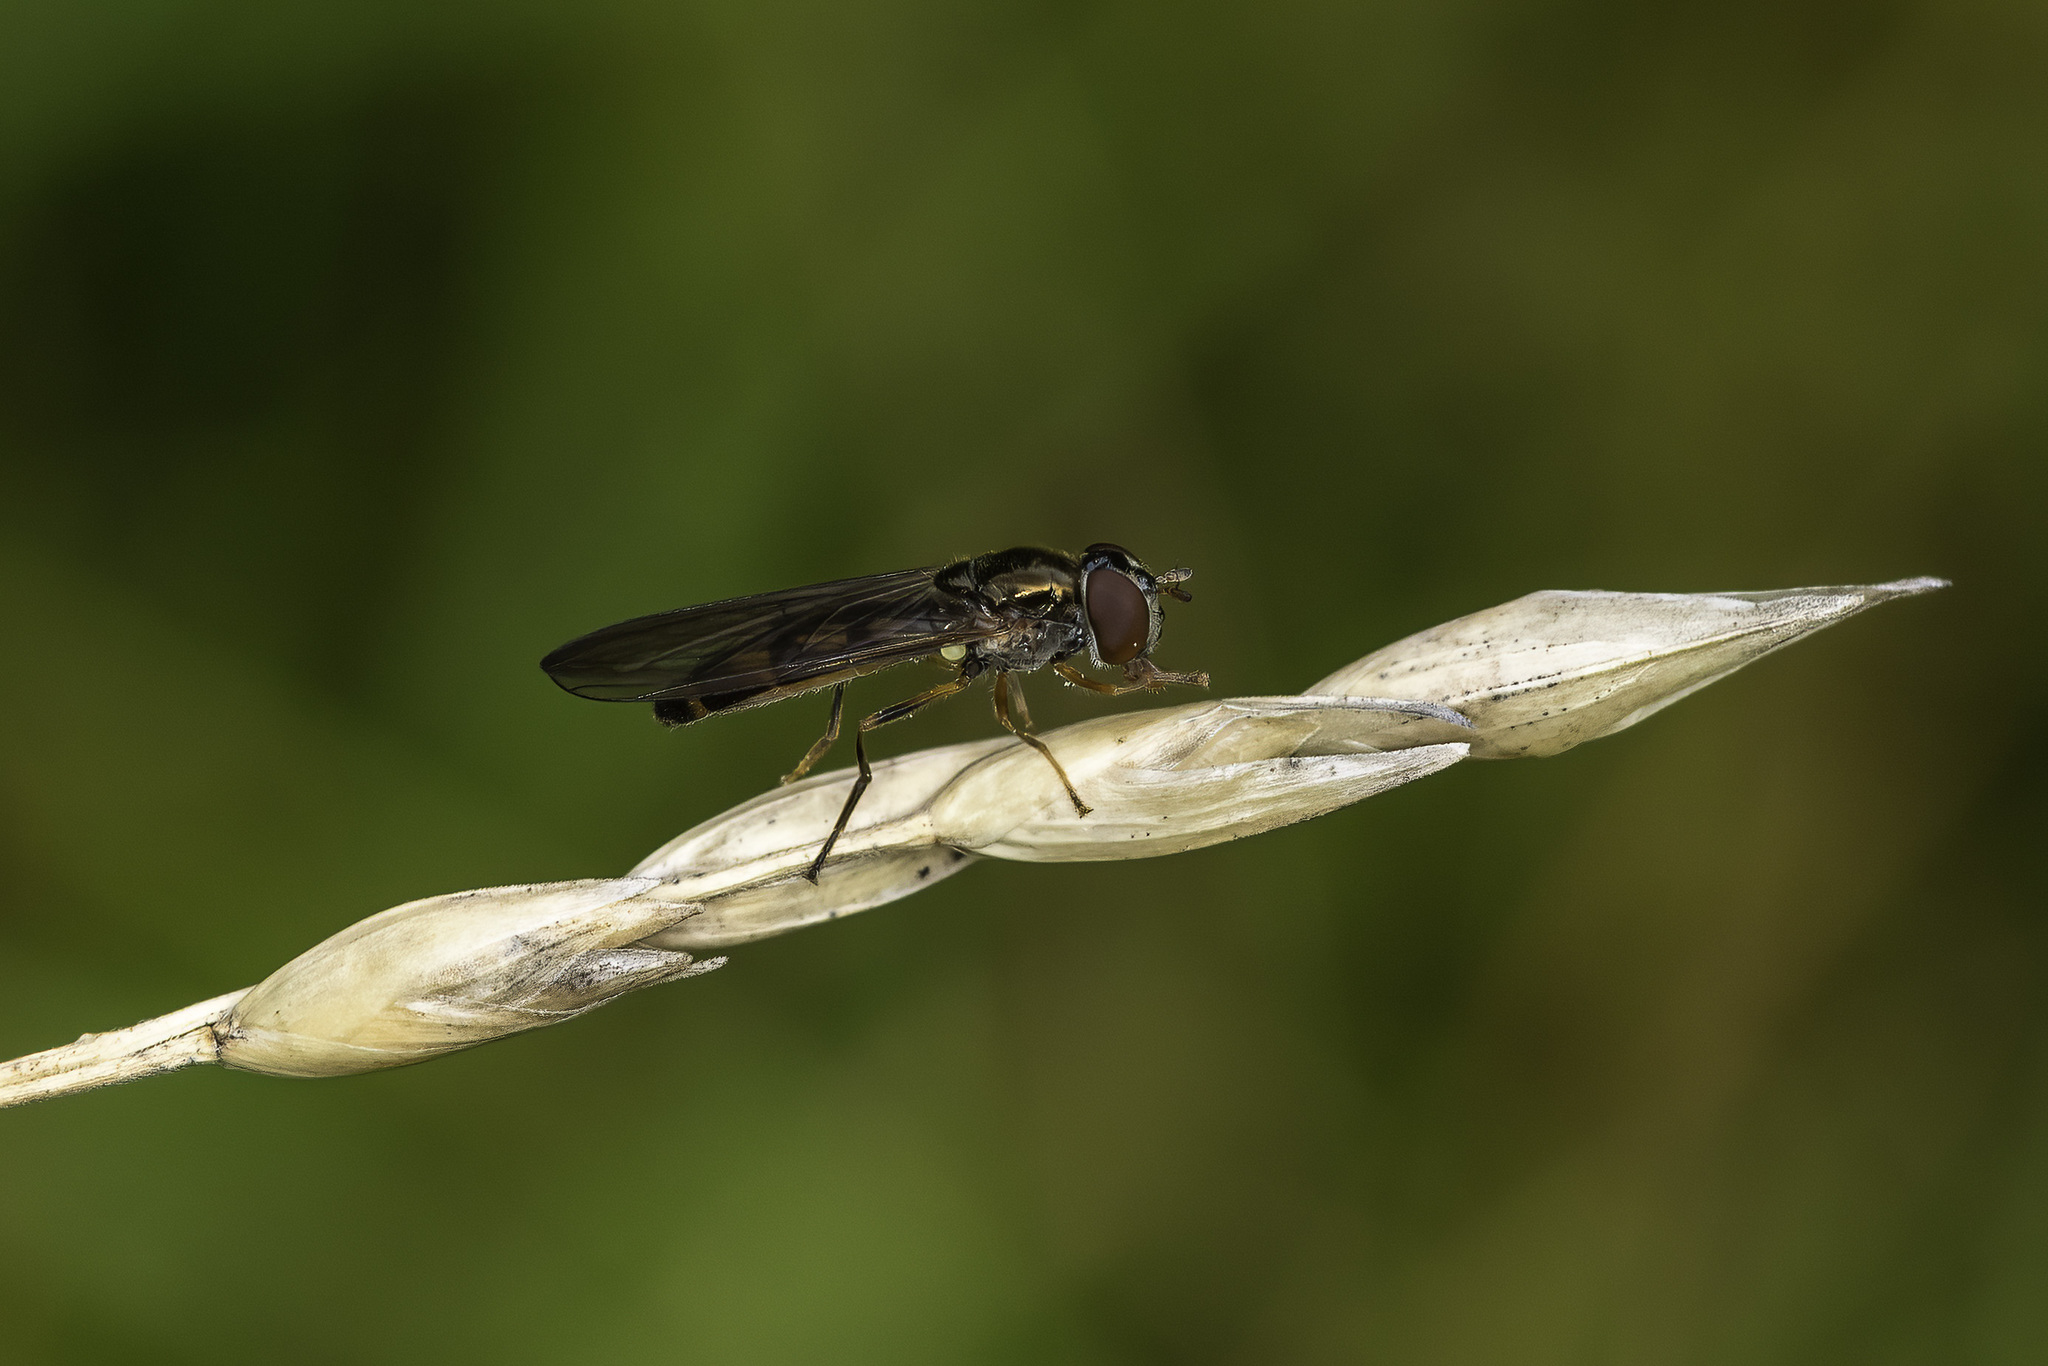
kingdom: Animalia
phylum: Arthropoda
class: Insecta
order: Diptera
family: Syrphidae
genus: Melanostoma
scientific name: Melanostoma scalare
